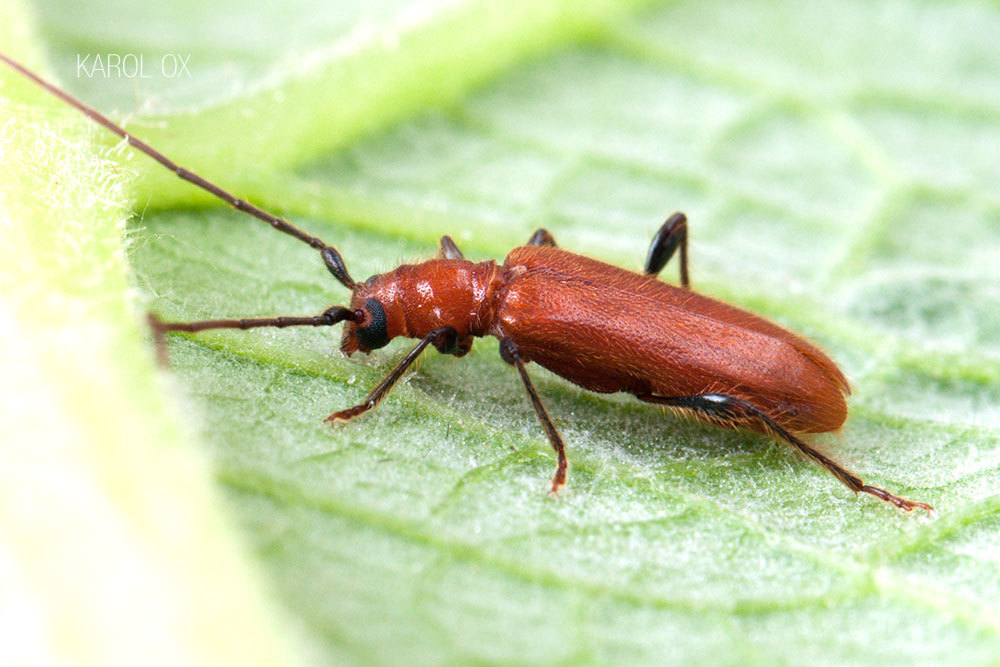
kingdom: Animalia
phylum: Arthropoda
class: Insecta
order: Coleoptera
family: Cerambycidae
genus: Obrium
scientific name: Obrium cantharinum
